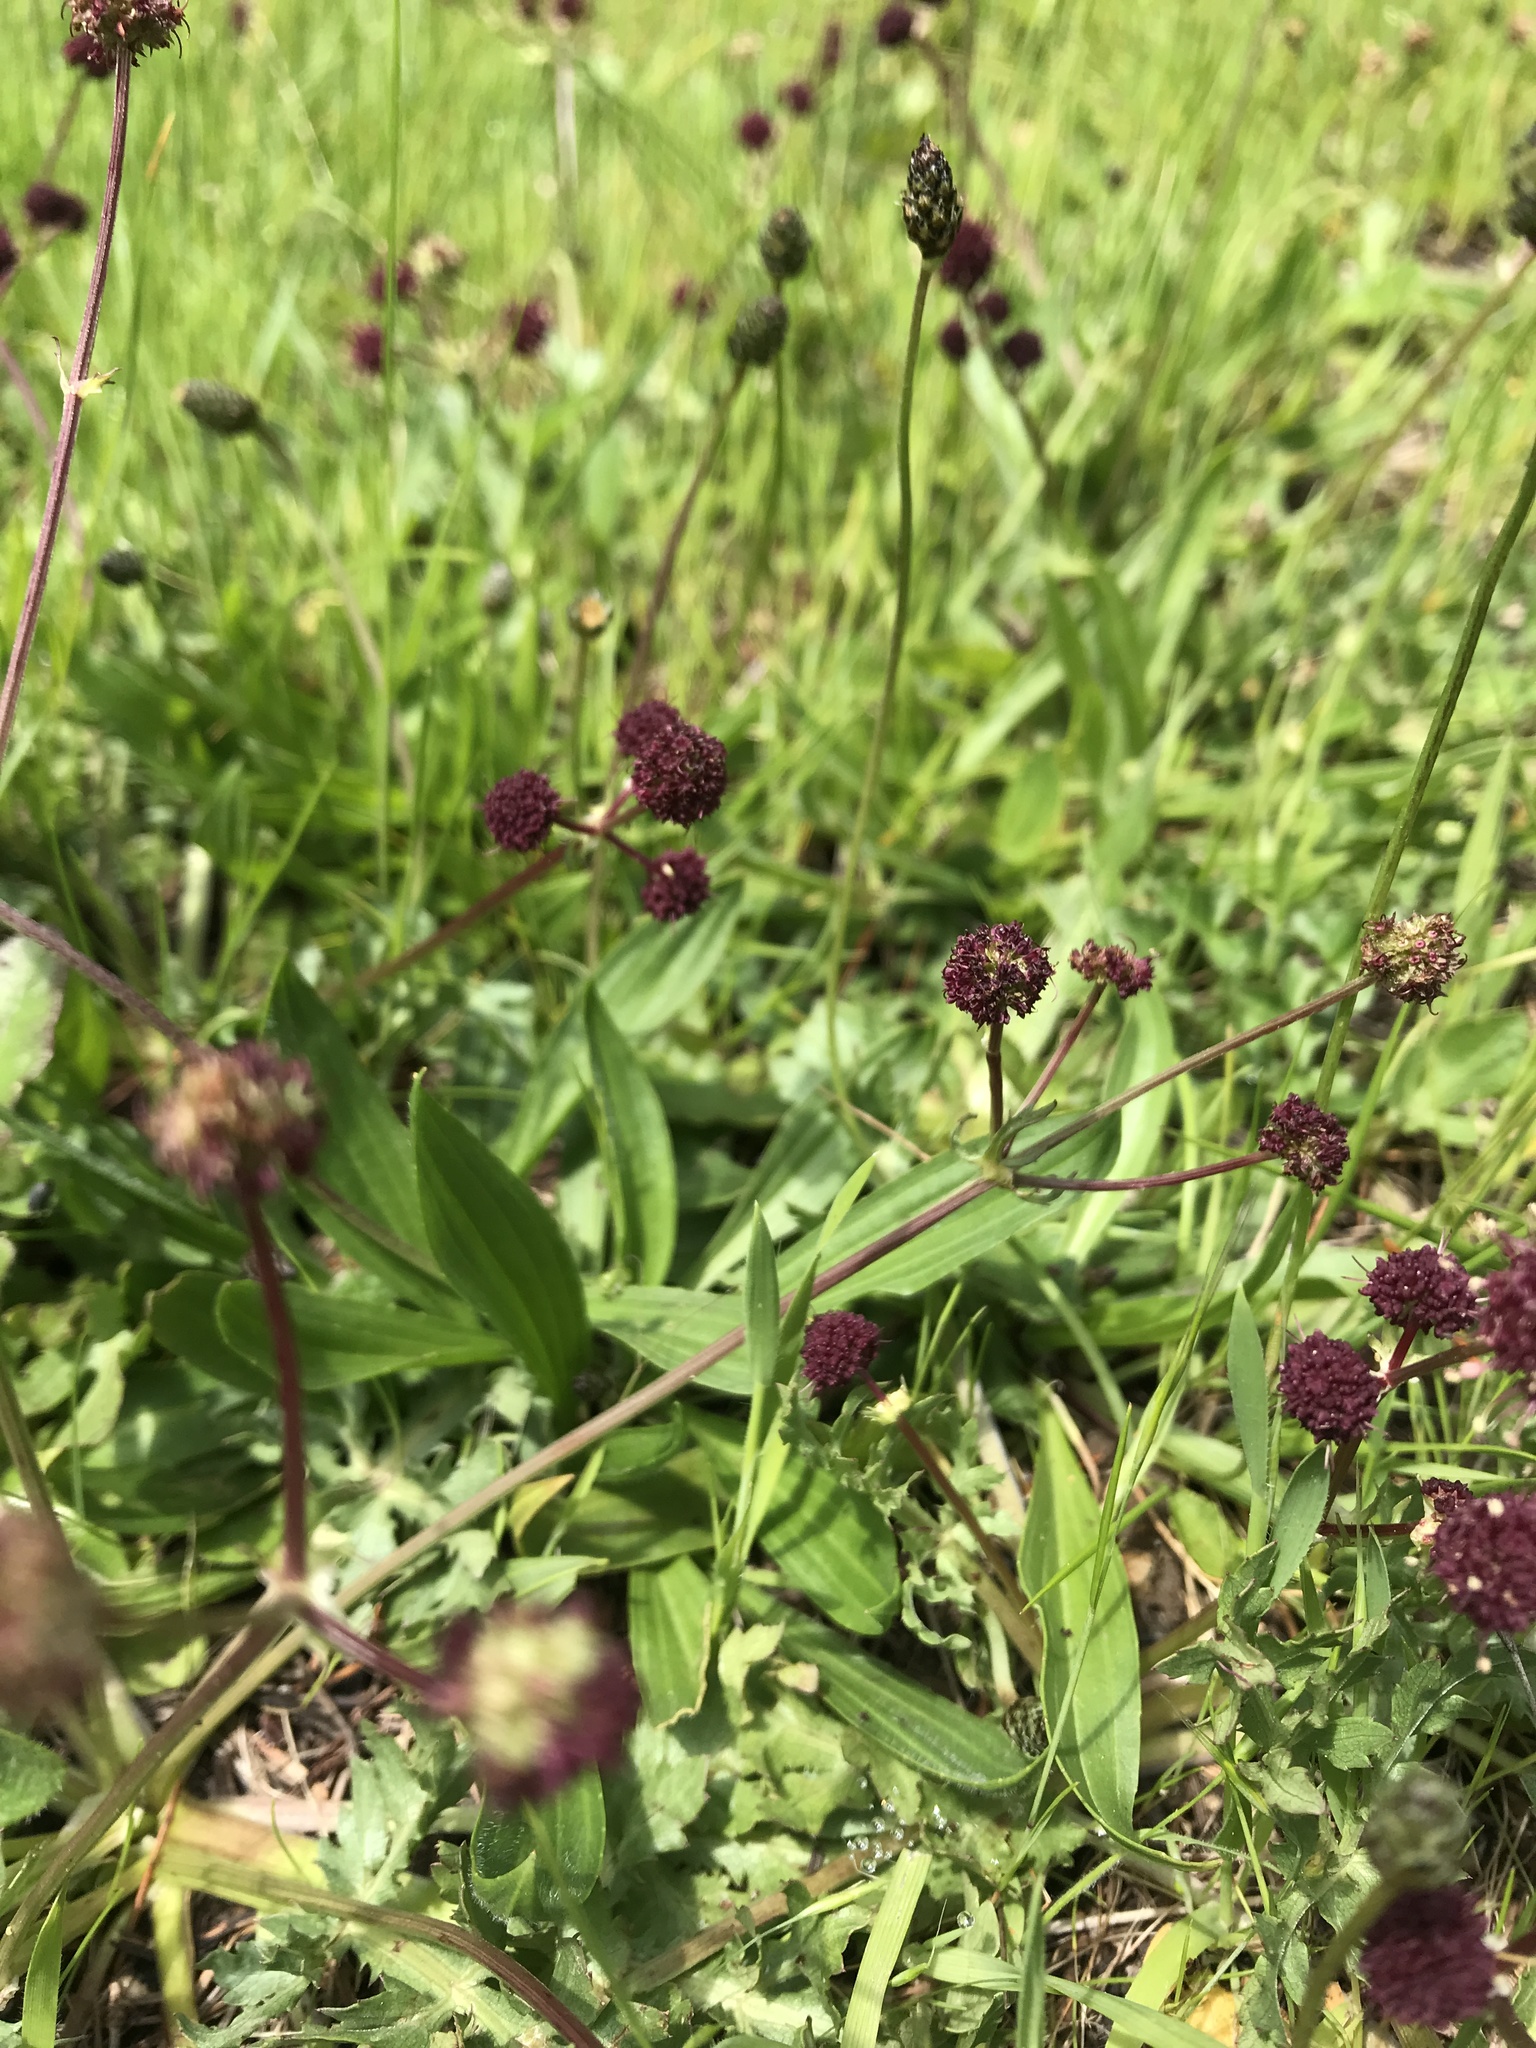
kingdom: Plantae
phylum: Tracheophyta
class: Magnoliopsida
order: Apiales
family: Apiaceae
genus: Sanicula
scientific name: Sanicula bipinnatifida
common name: Shoe-buttons
